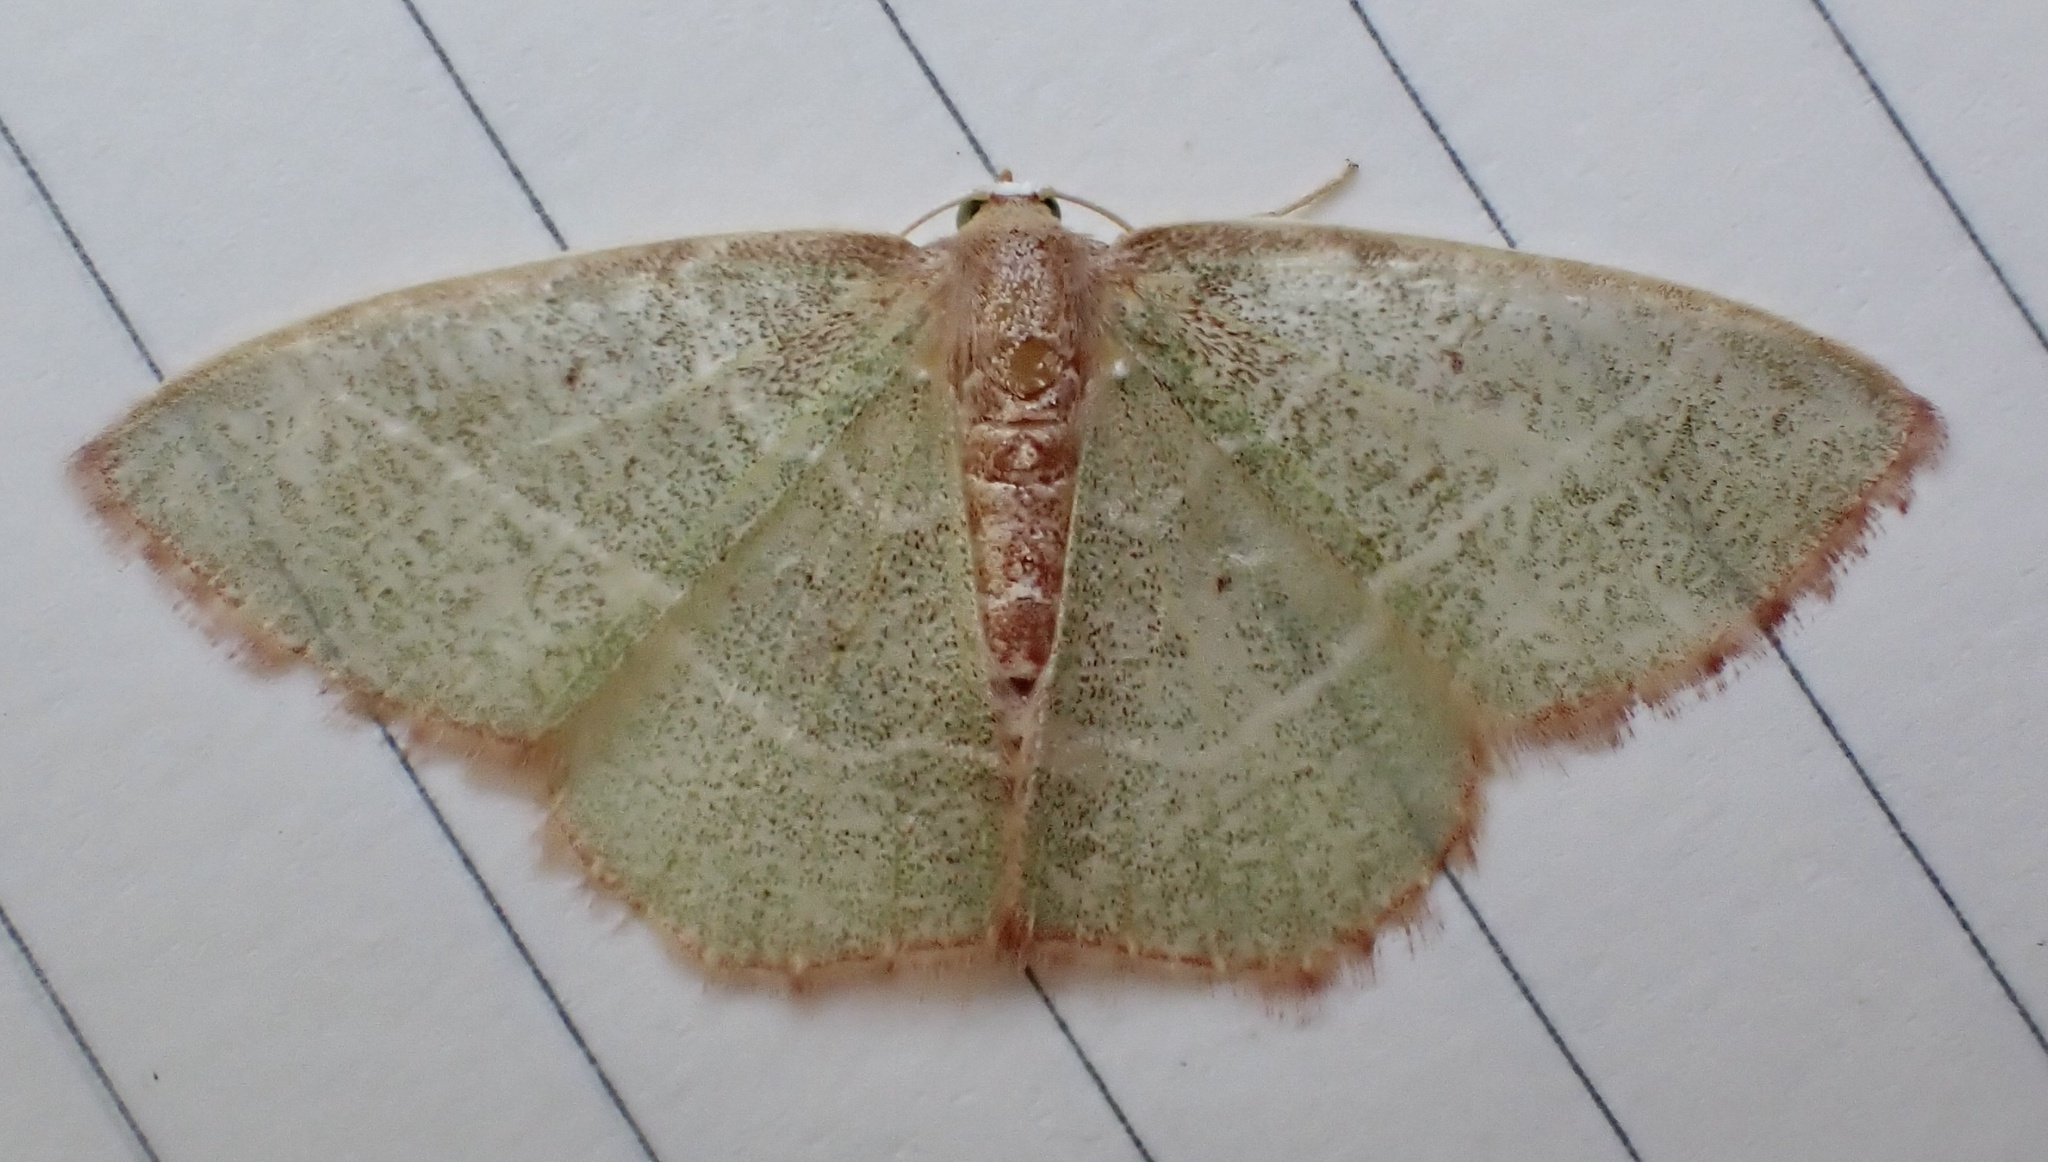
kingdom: Animalia
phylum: Arthropoda
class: Insecta
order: Lepidoptera
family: Geometridae
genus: Nemoria
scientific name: Nemoria bistriaria
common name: Red-fringed emerald
